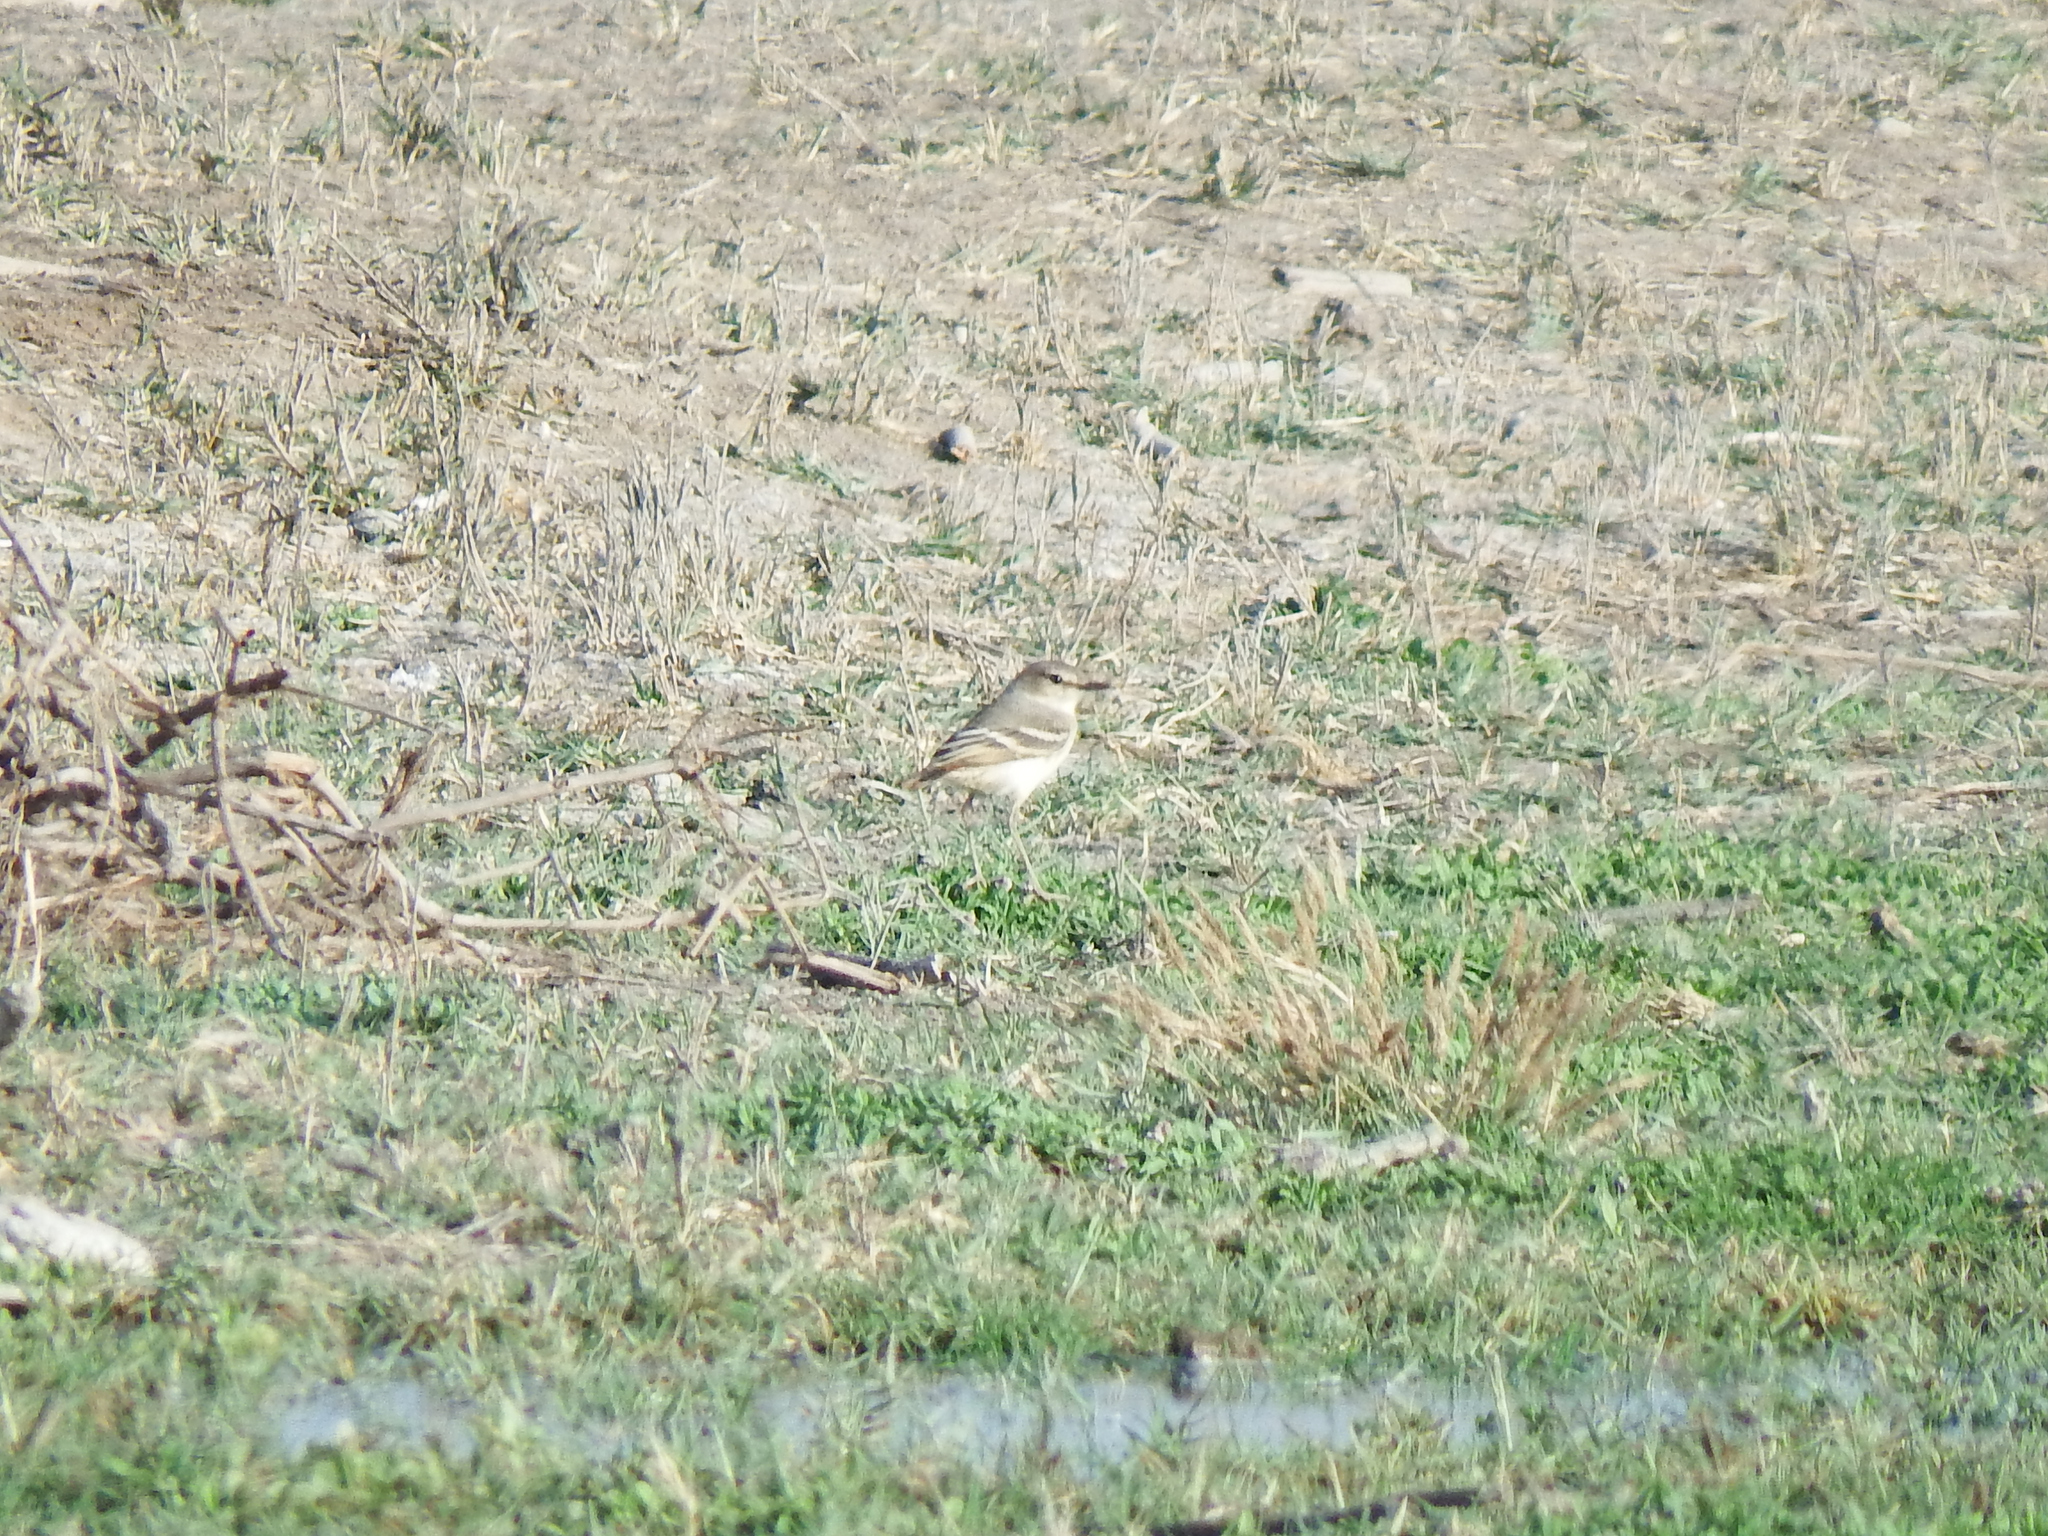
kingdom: Animalia
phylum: Chordata
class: Aves
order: Passeriformes
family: Tyrannidae
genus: Muscigralla
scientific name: Muscigralla brevicauda
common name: Short-tailed field tyrant
